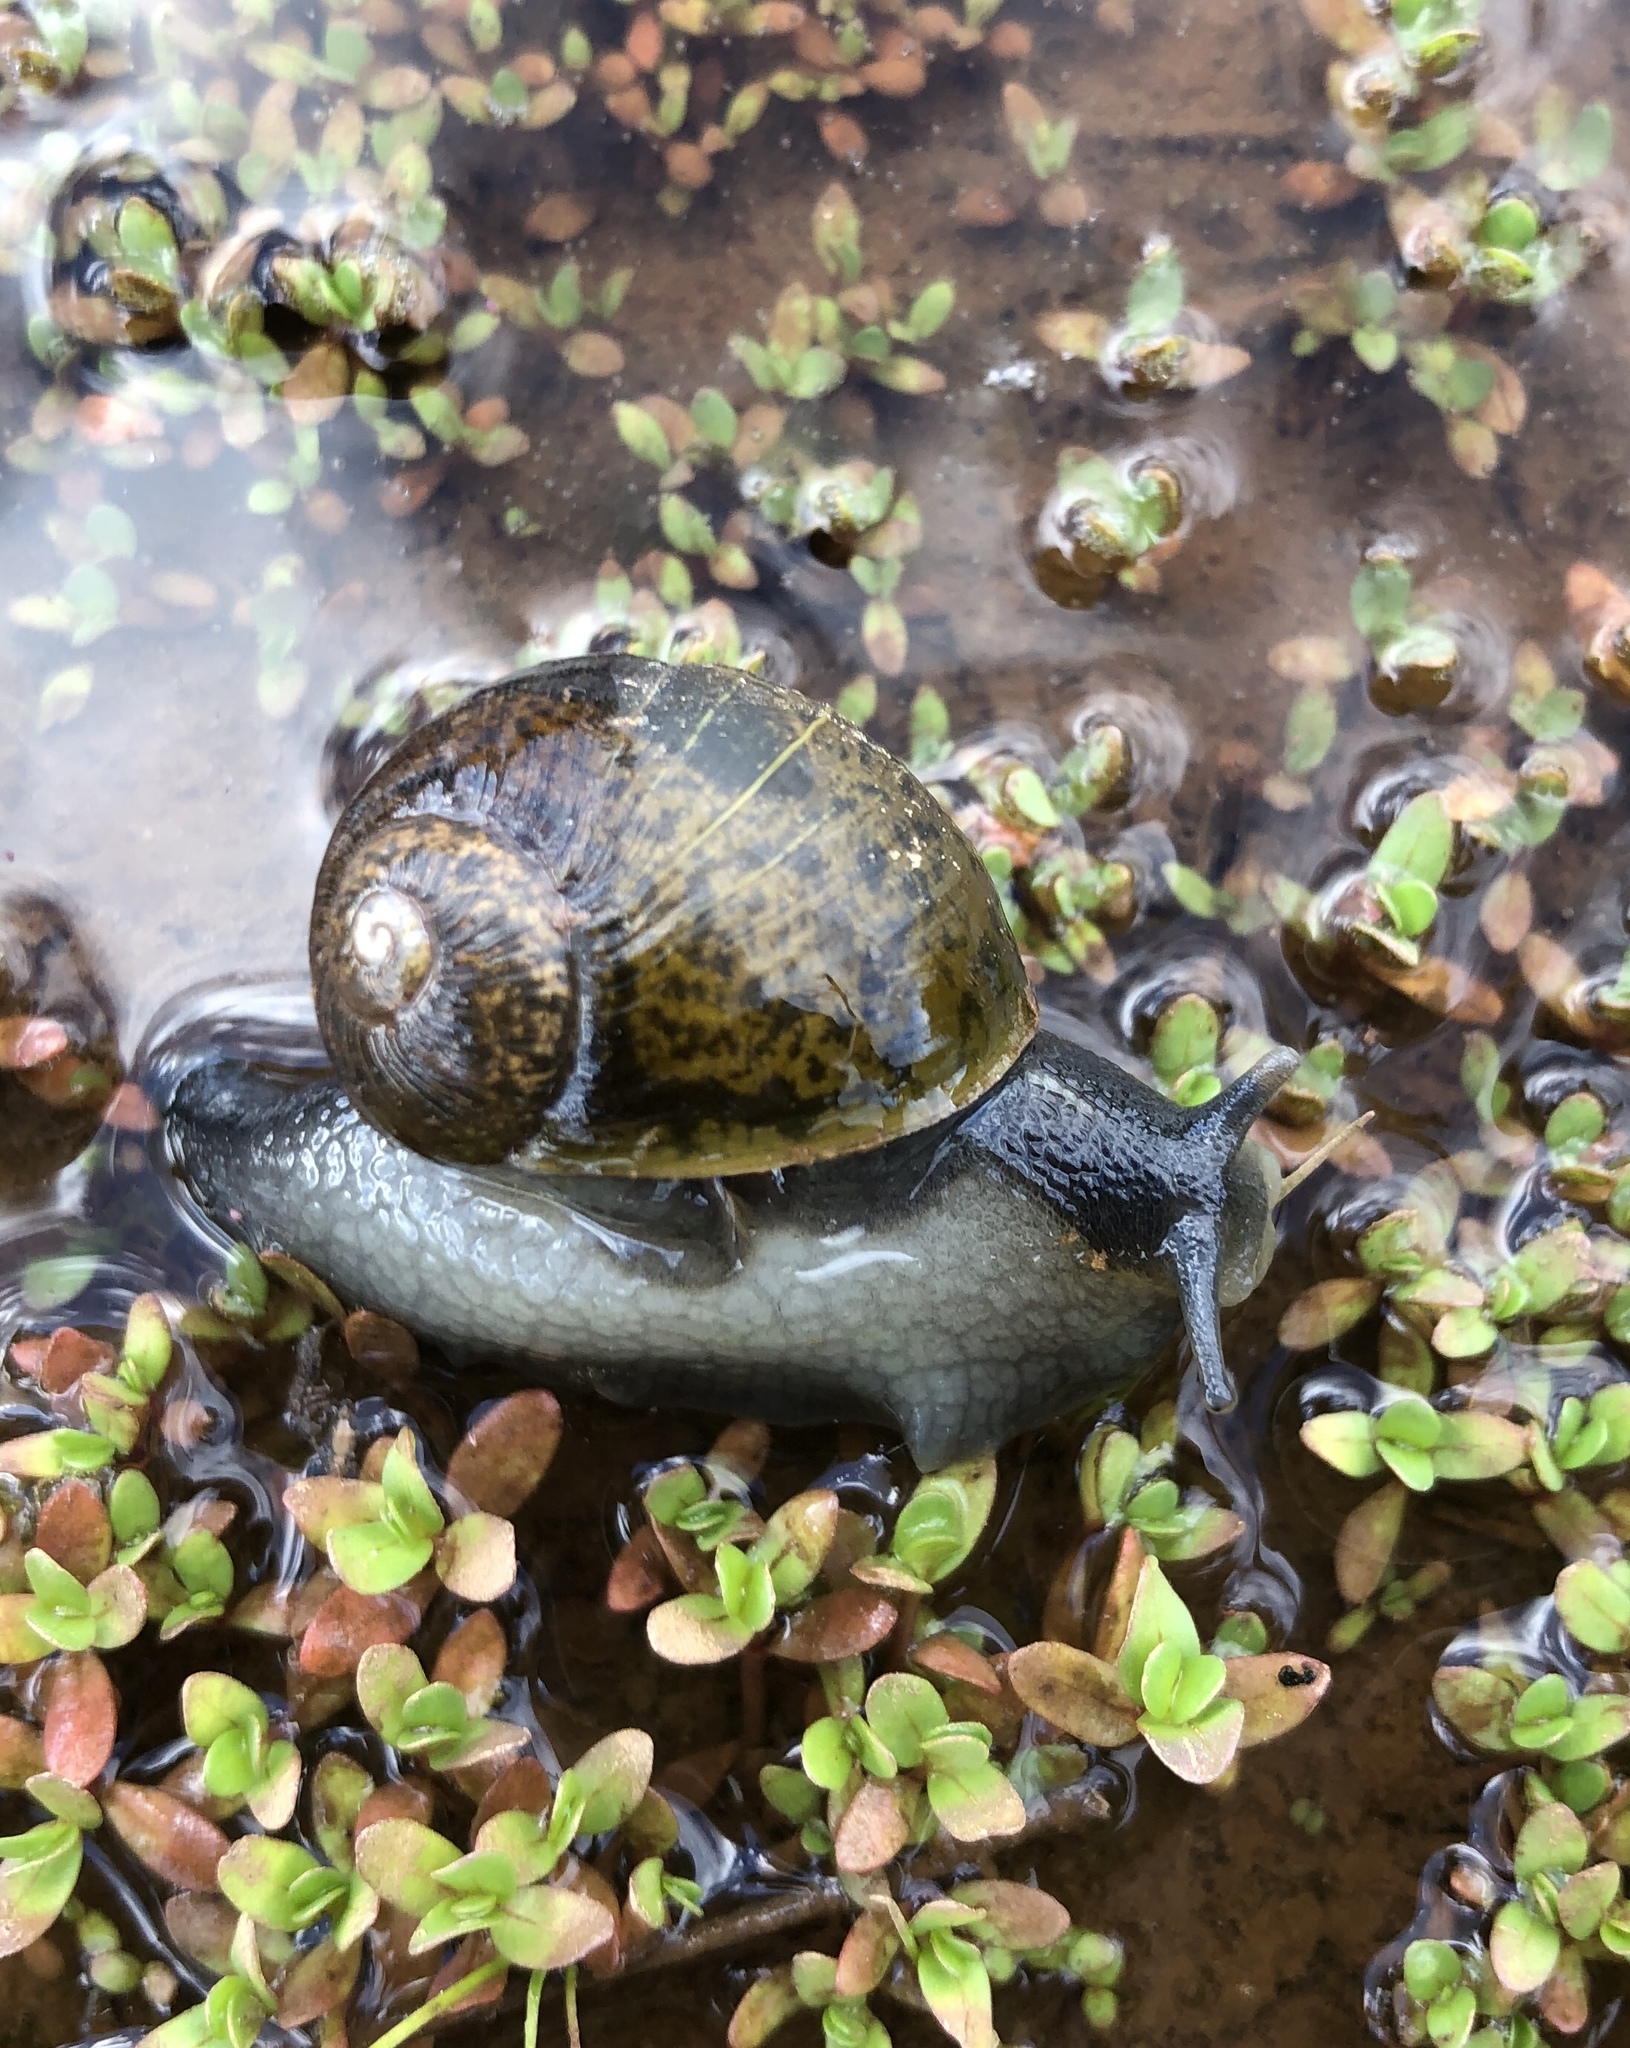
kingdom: Animalia
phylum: Mollusca
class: Gastropoda
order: Stylommatophora
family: Helicidae
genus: Cantareus
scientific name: Cantareus apertus
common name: Green gardensnail
